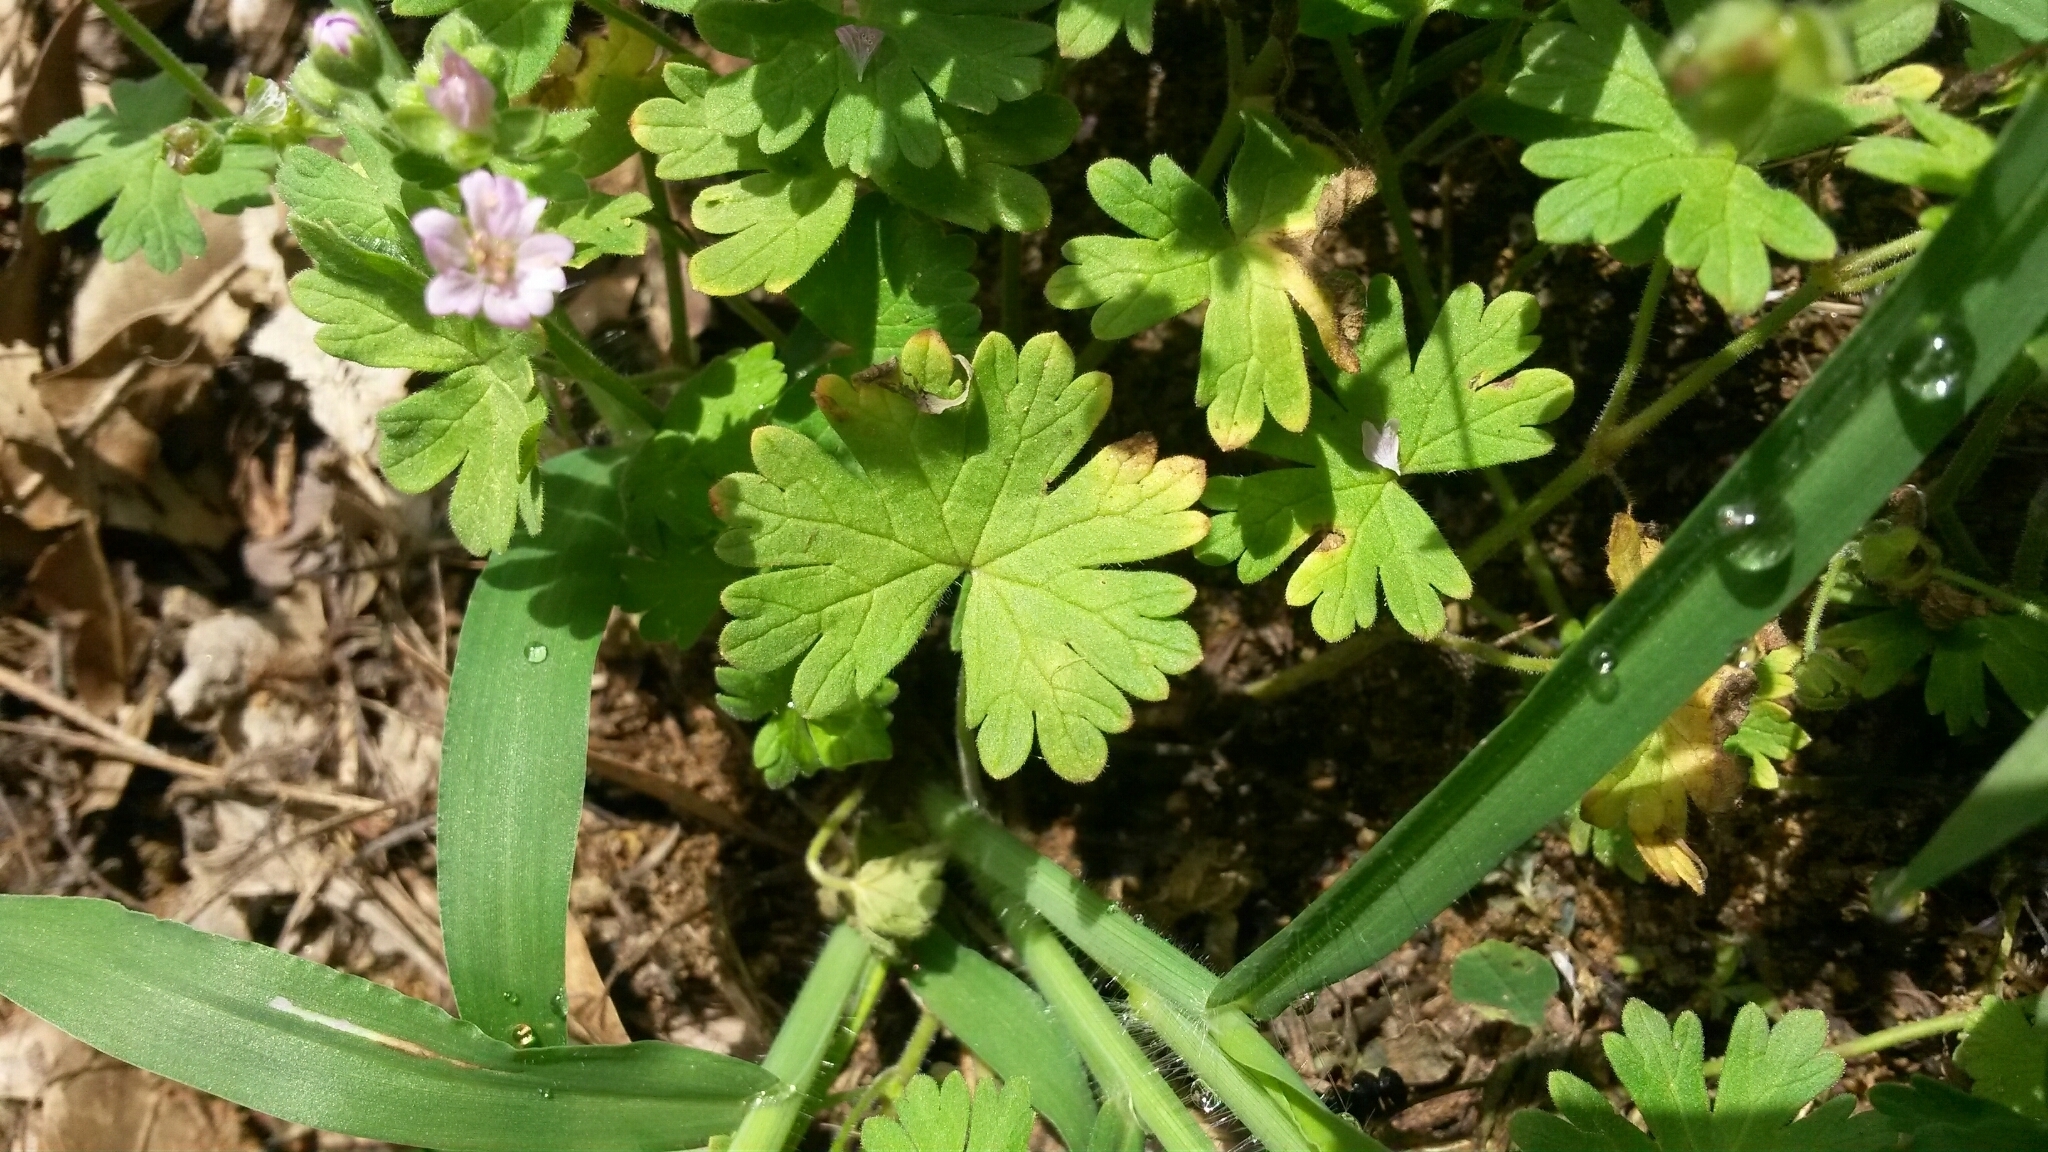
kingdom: Plantae
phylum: Tracheophyta
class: Magnoliopsida
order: Geraniales
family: Geraniaceae
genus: Geranium
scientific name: Geranium molle
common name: Dove's-foot crane's-bill
